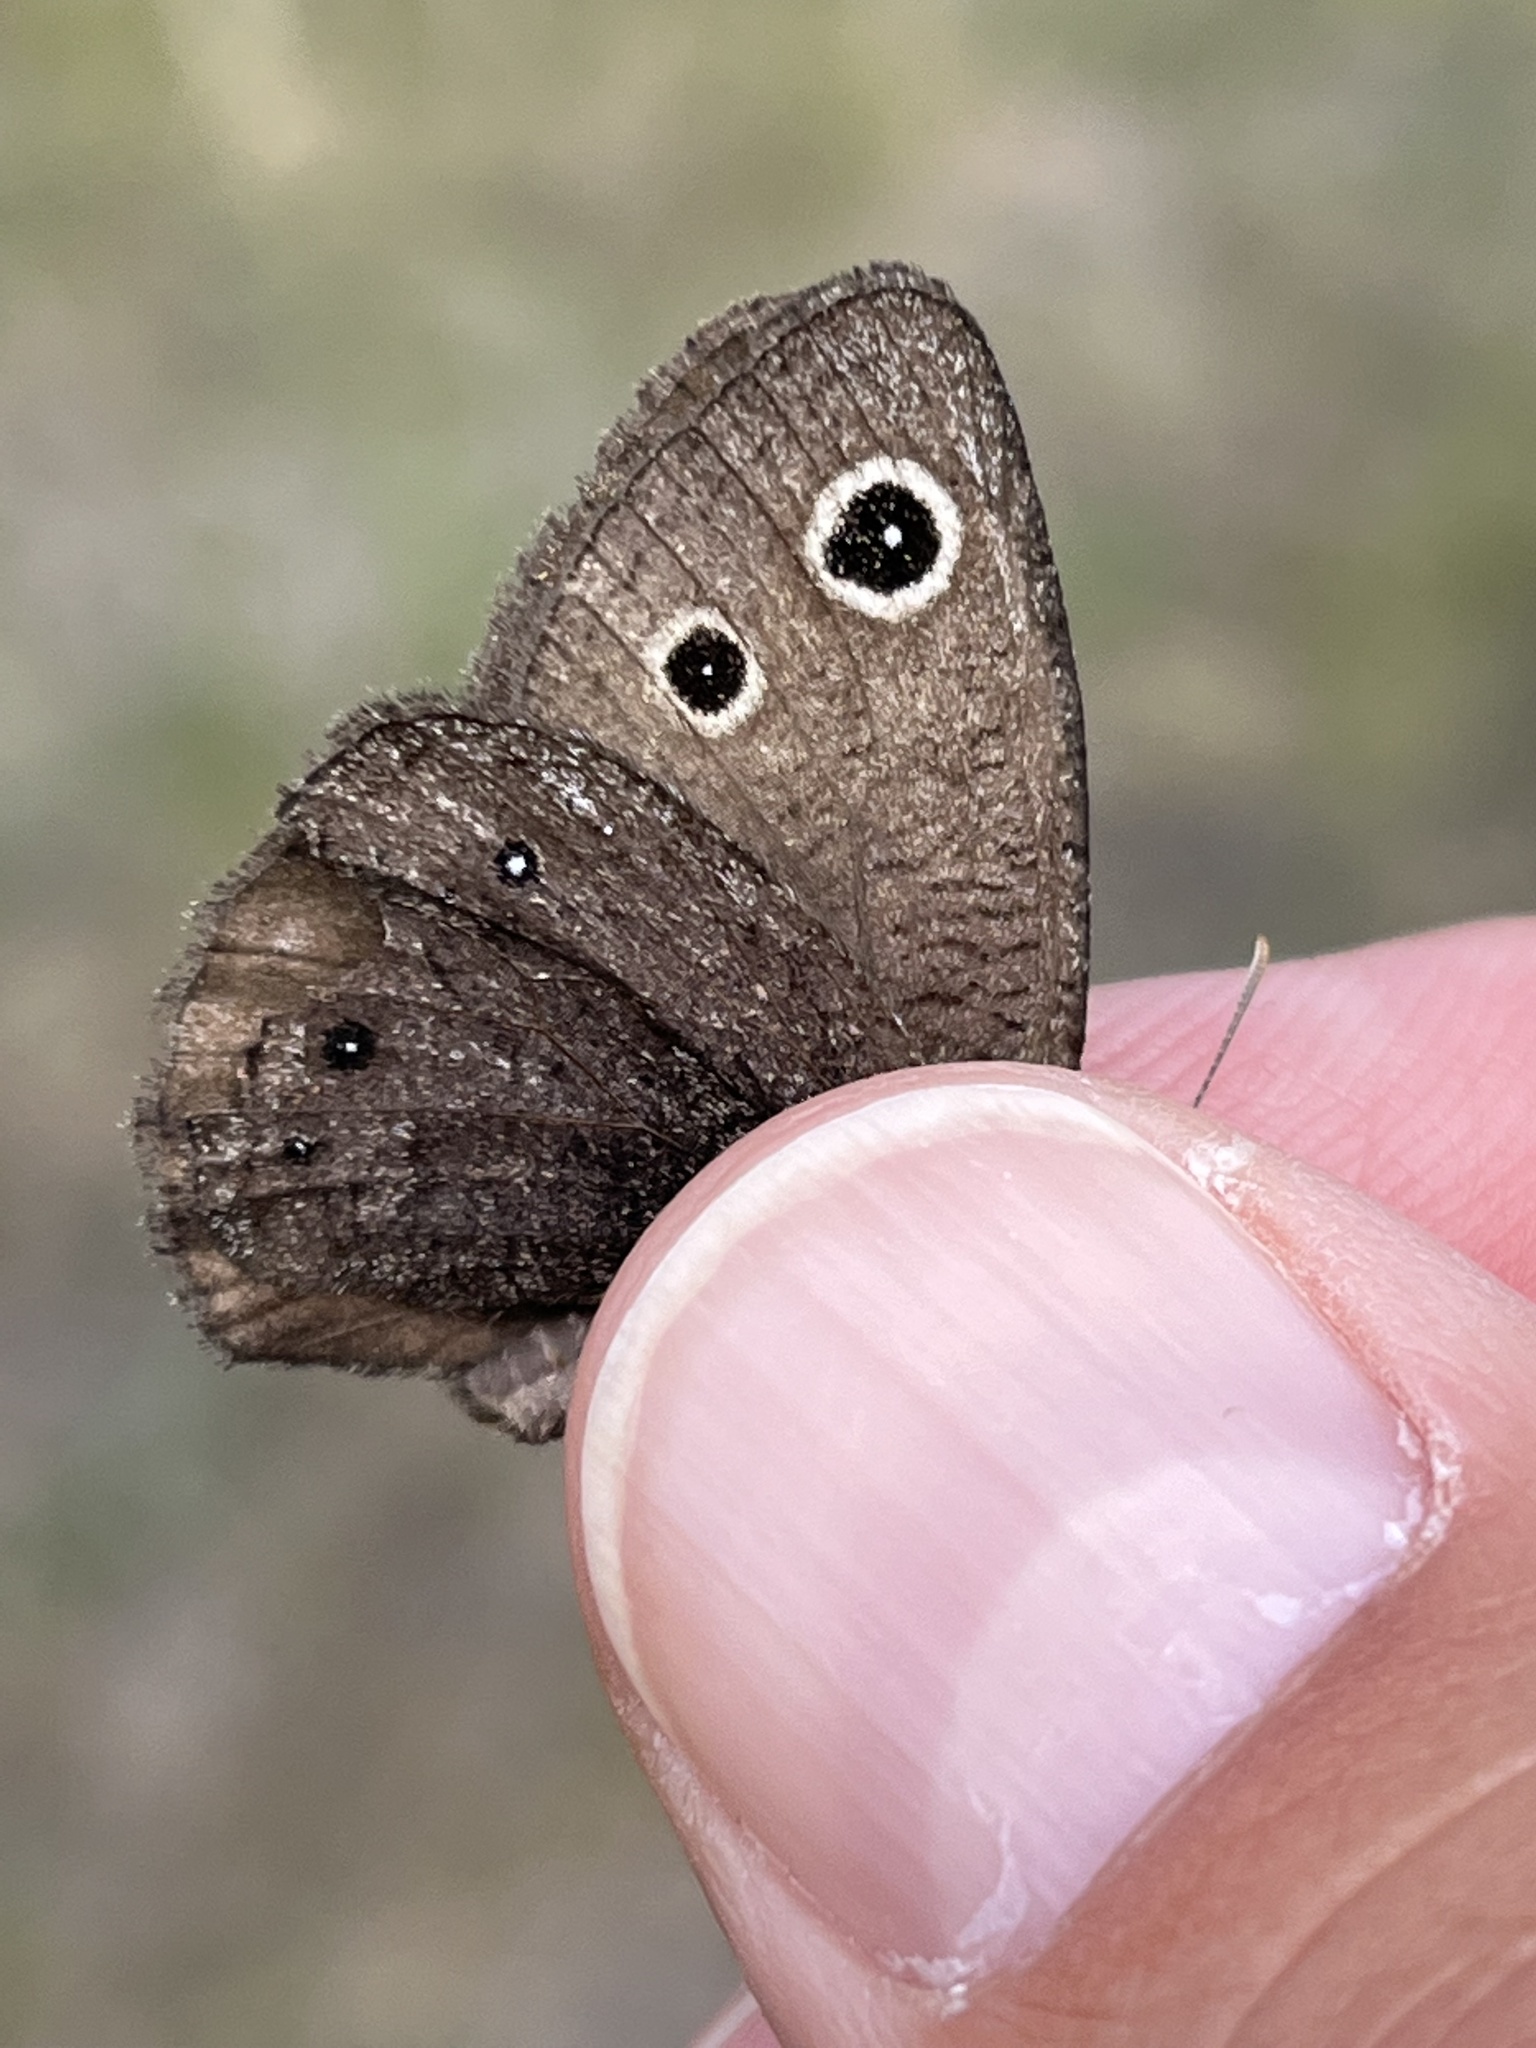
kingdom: Animalia
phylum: Arthropoda
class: Insecta
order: Lepidoptera
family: Nymphalidae
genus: Cercyonis
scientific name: Cercyonis oetus
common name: Small wood-nymph
